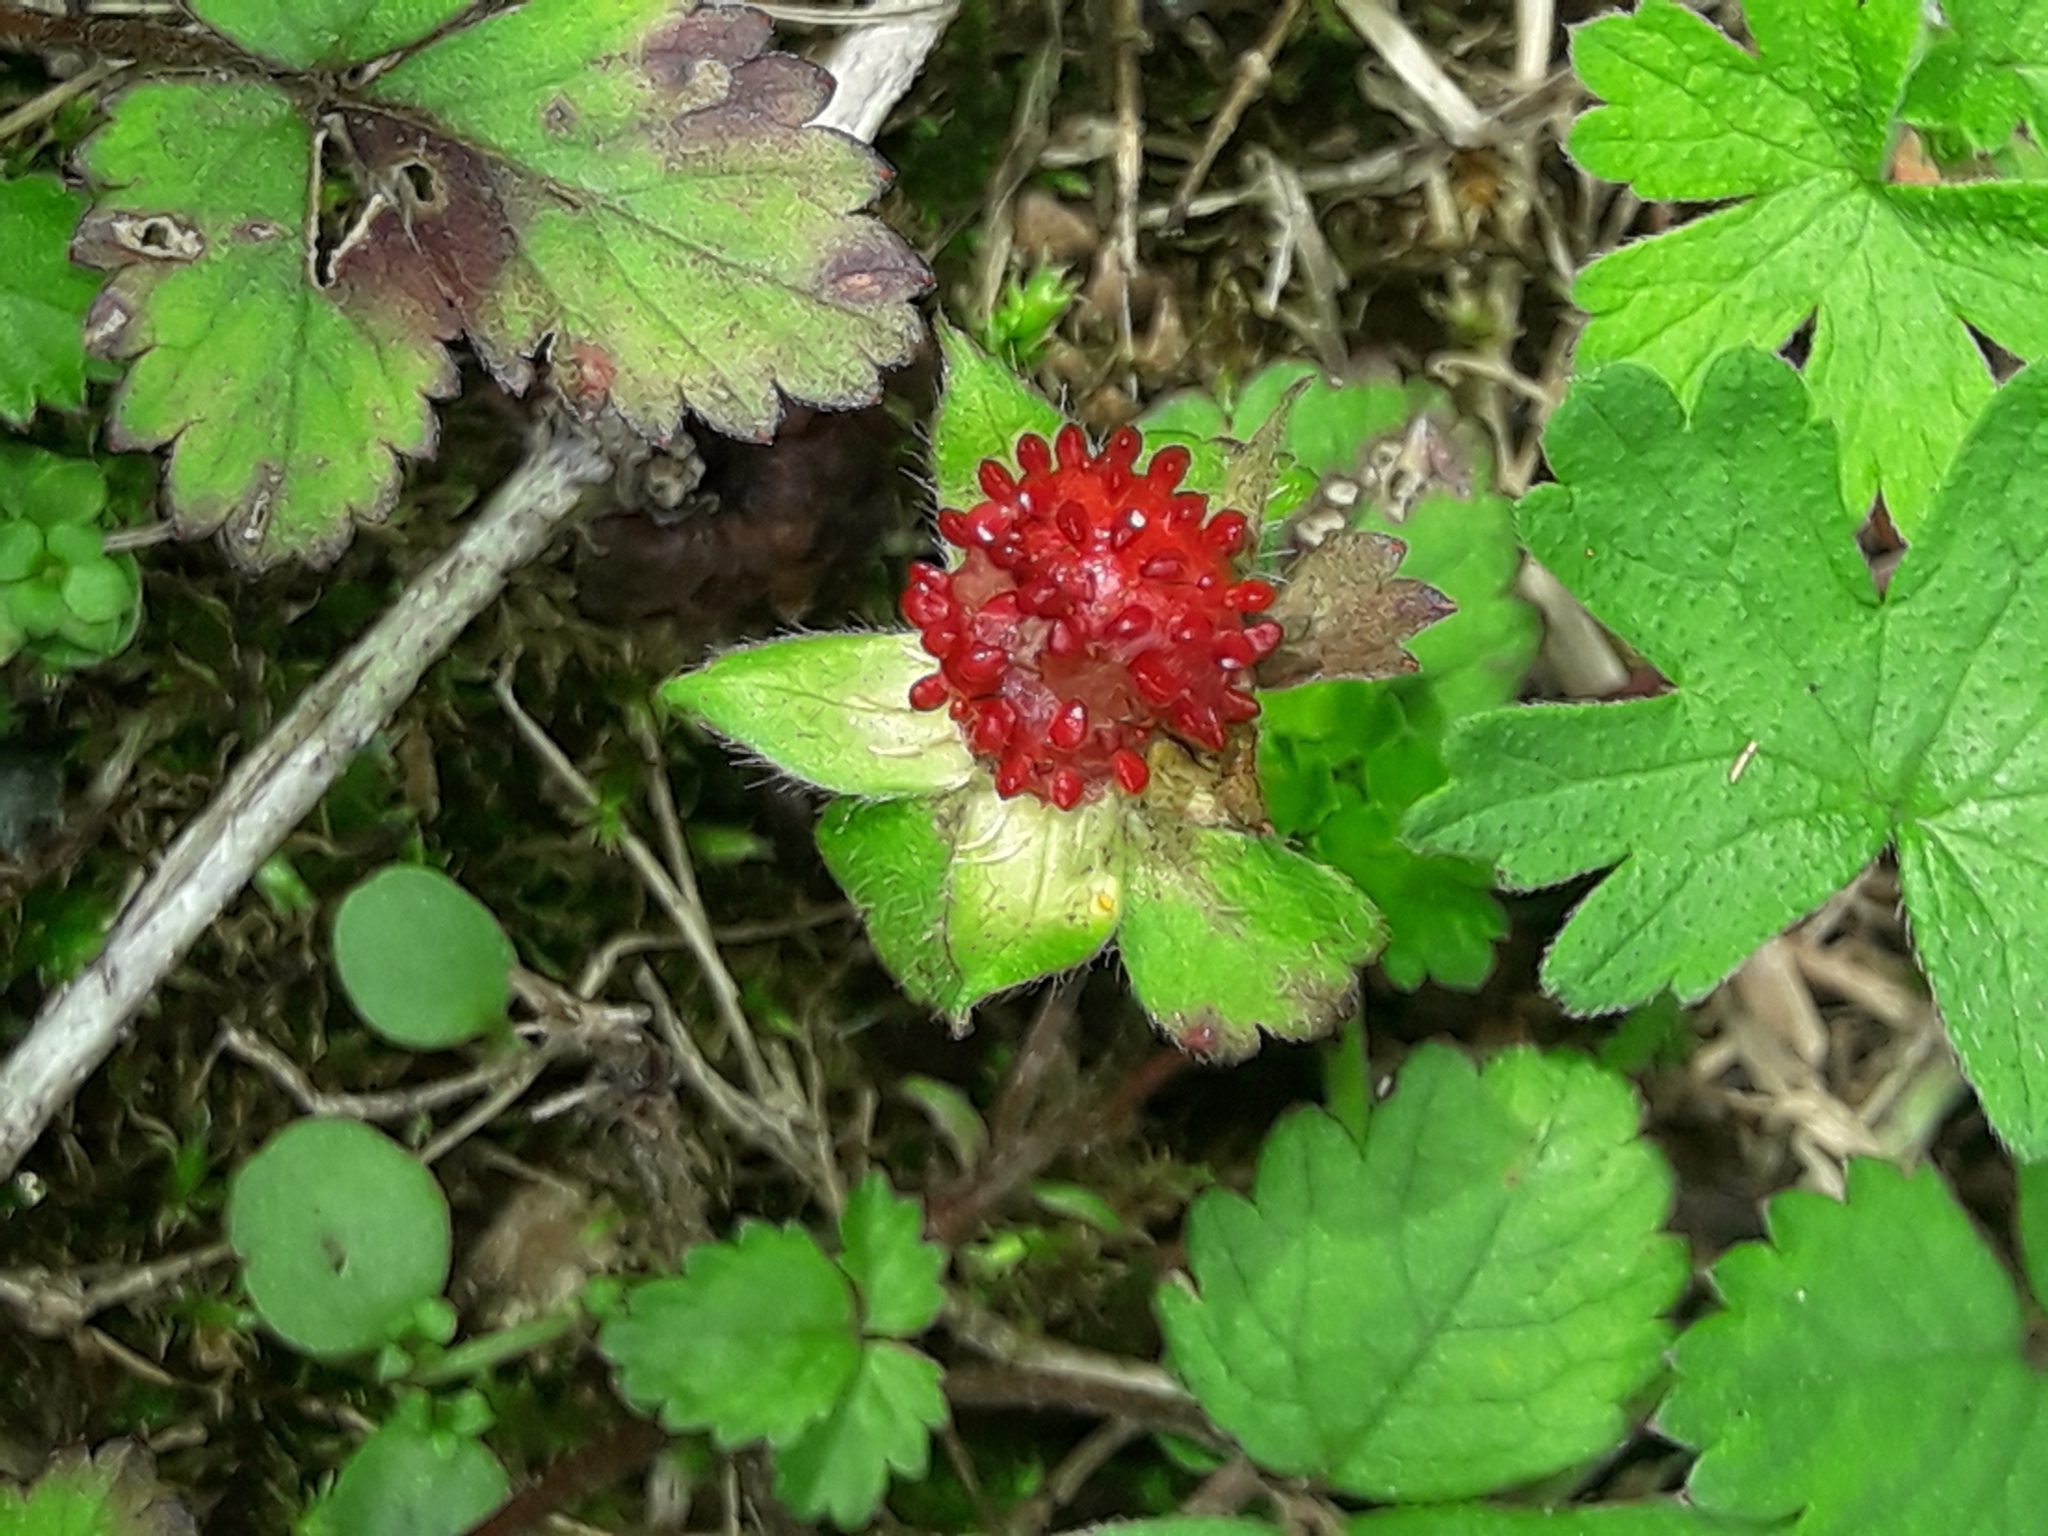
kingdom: Plantae
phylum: Tracheophyta
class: Magnoliopsida
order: Rosales
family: Rosaceae
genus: Potentilla
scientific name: Potentilla indica
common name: Yellow-flowered strawberry
